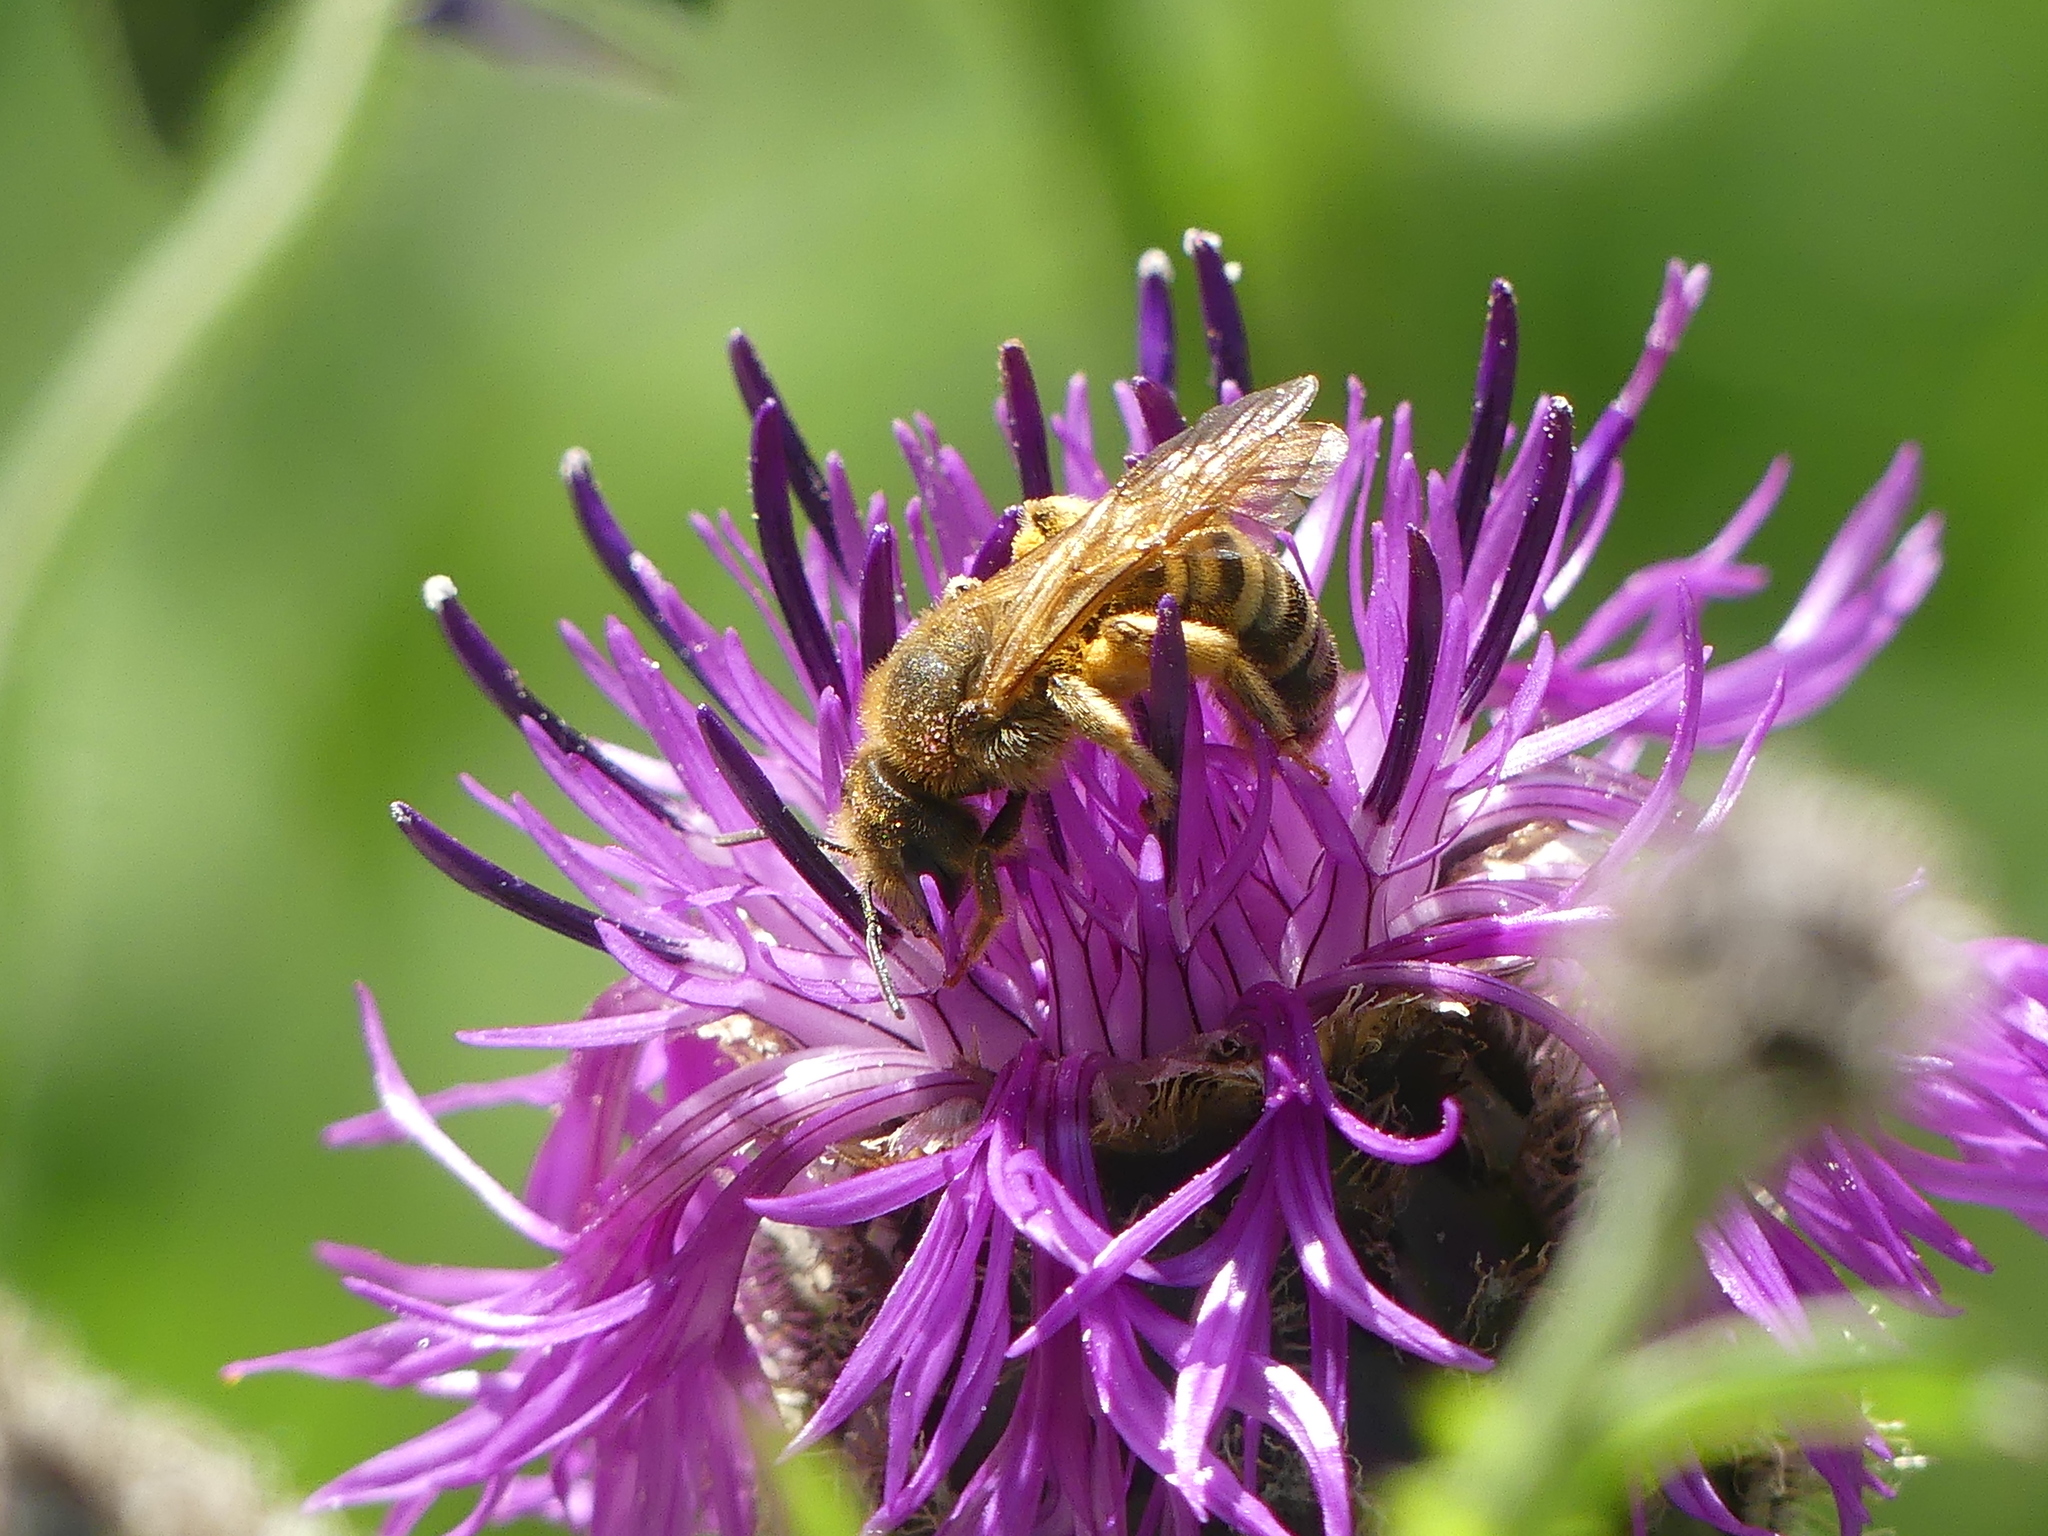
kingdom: Animalia
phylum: Arthropoda
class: Insecta
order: Hymenoptera
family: Halictidae
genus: Halictus
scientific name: Halictus scabiosae
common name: Great banded furrow bee
